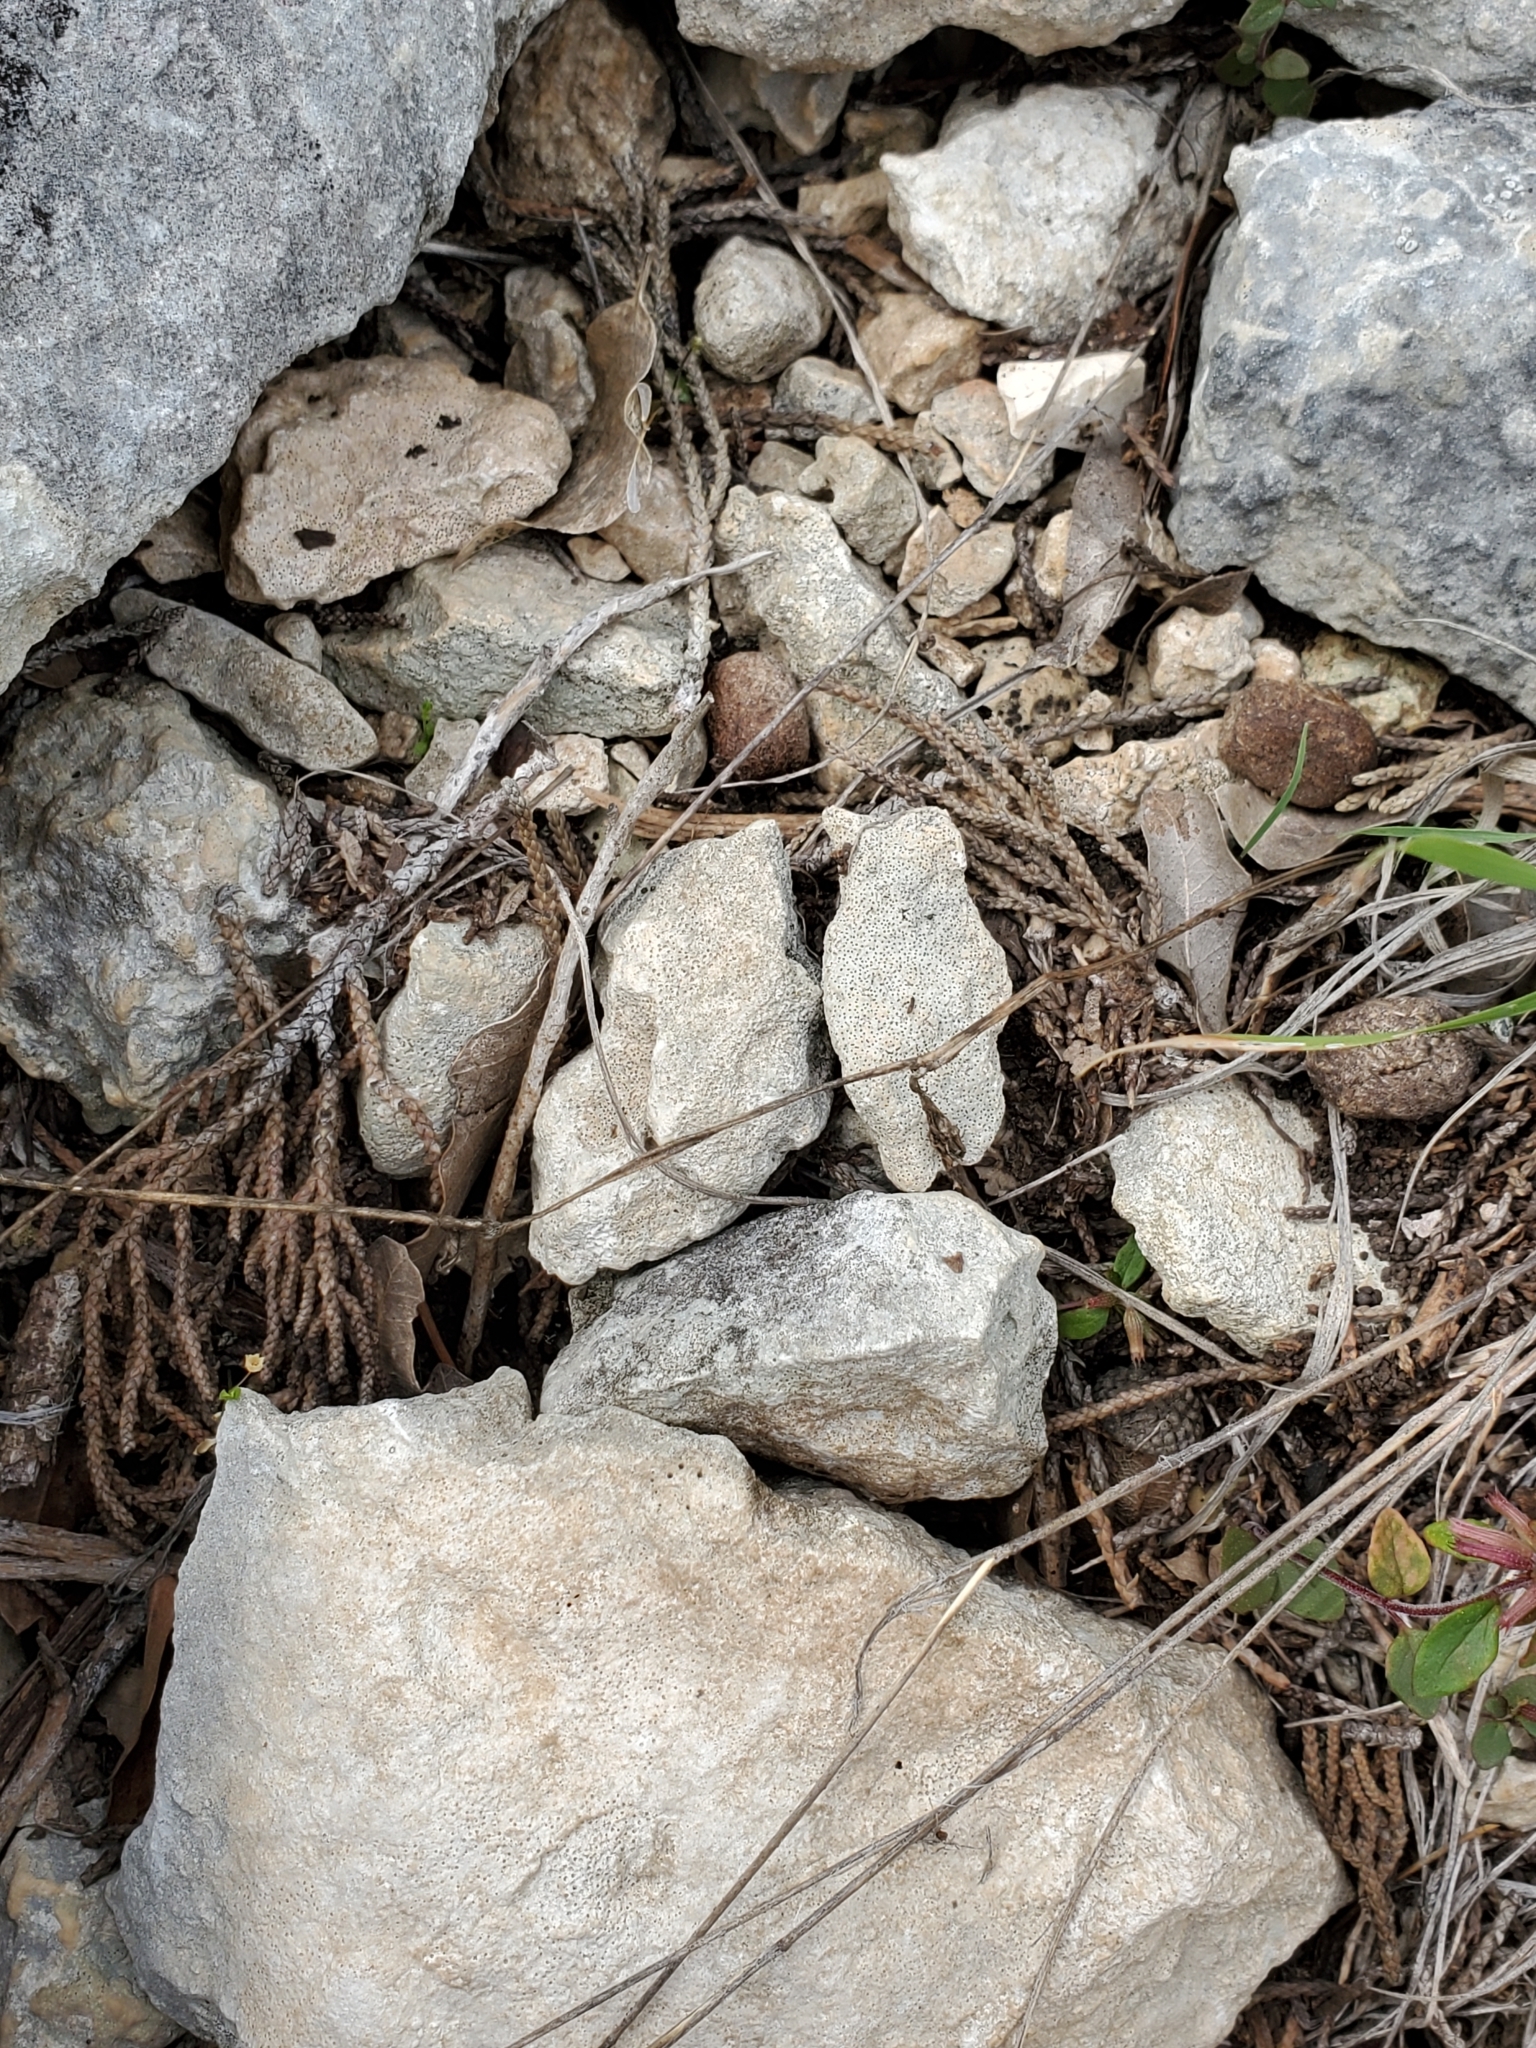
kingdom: Plantae
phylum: Tracheophyta
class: Magnoliopsida
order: Ranunculales
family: Ranunculaceae
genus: Anemone
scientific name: Anemone edwardsiana
